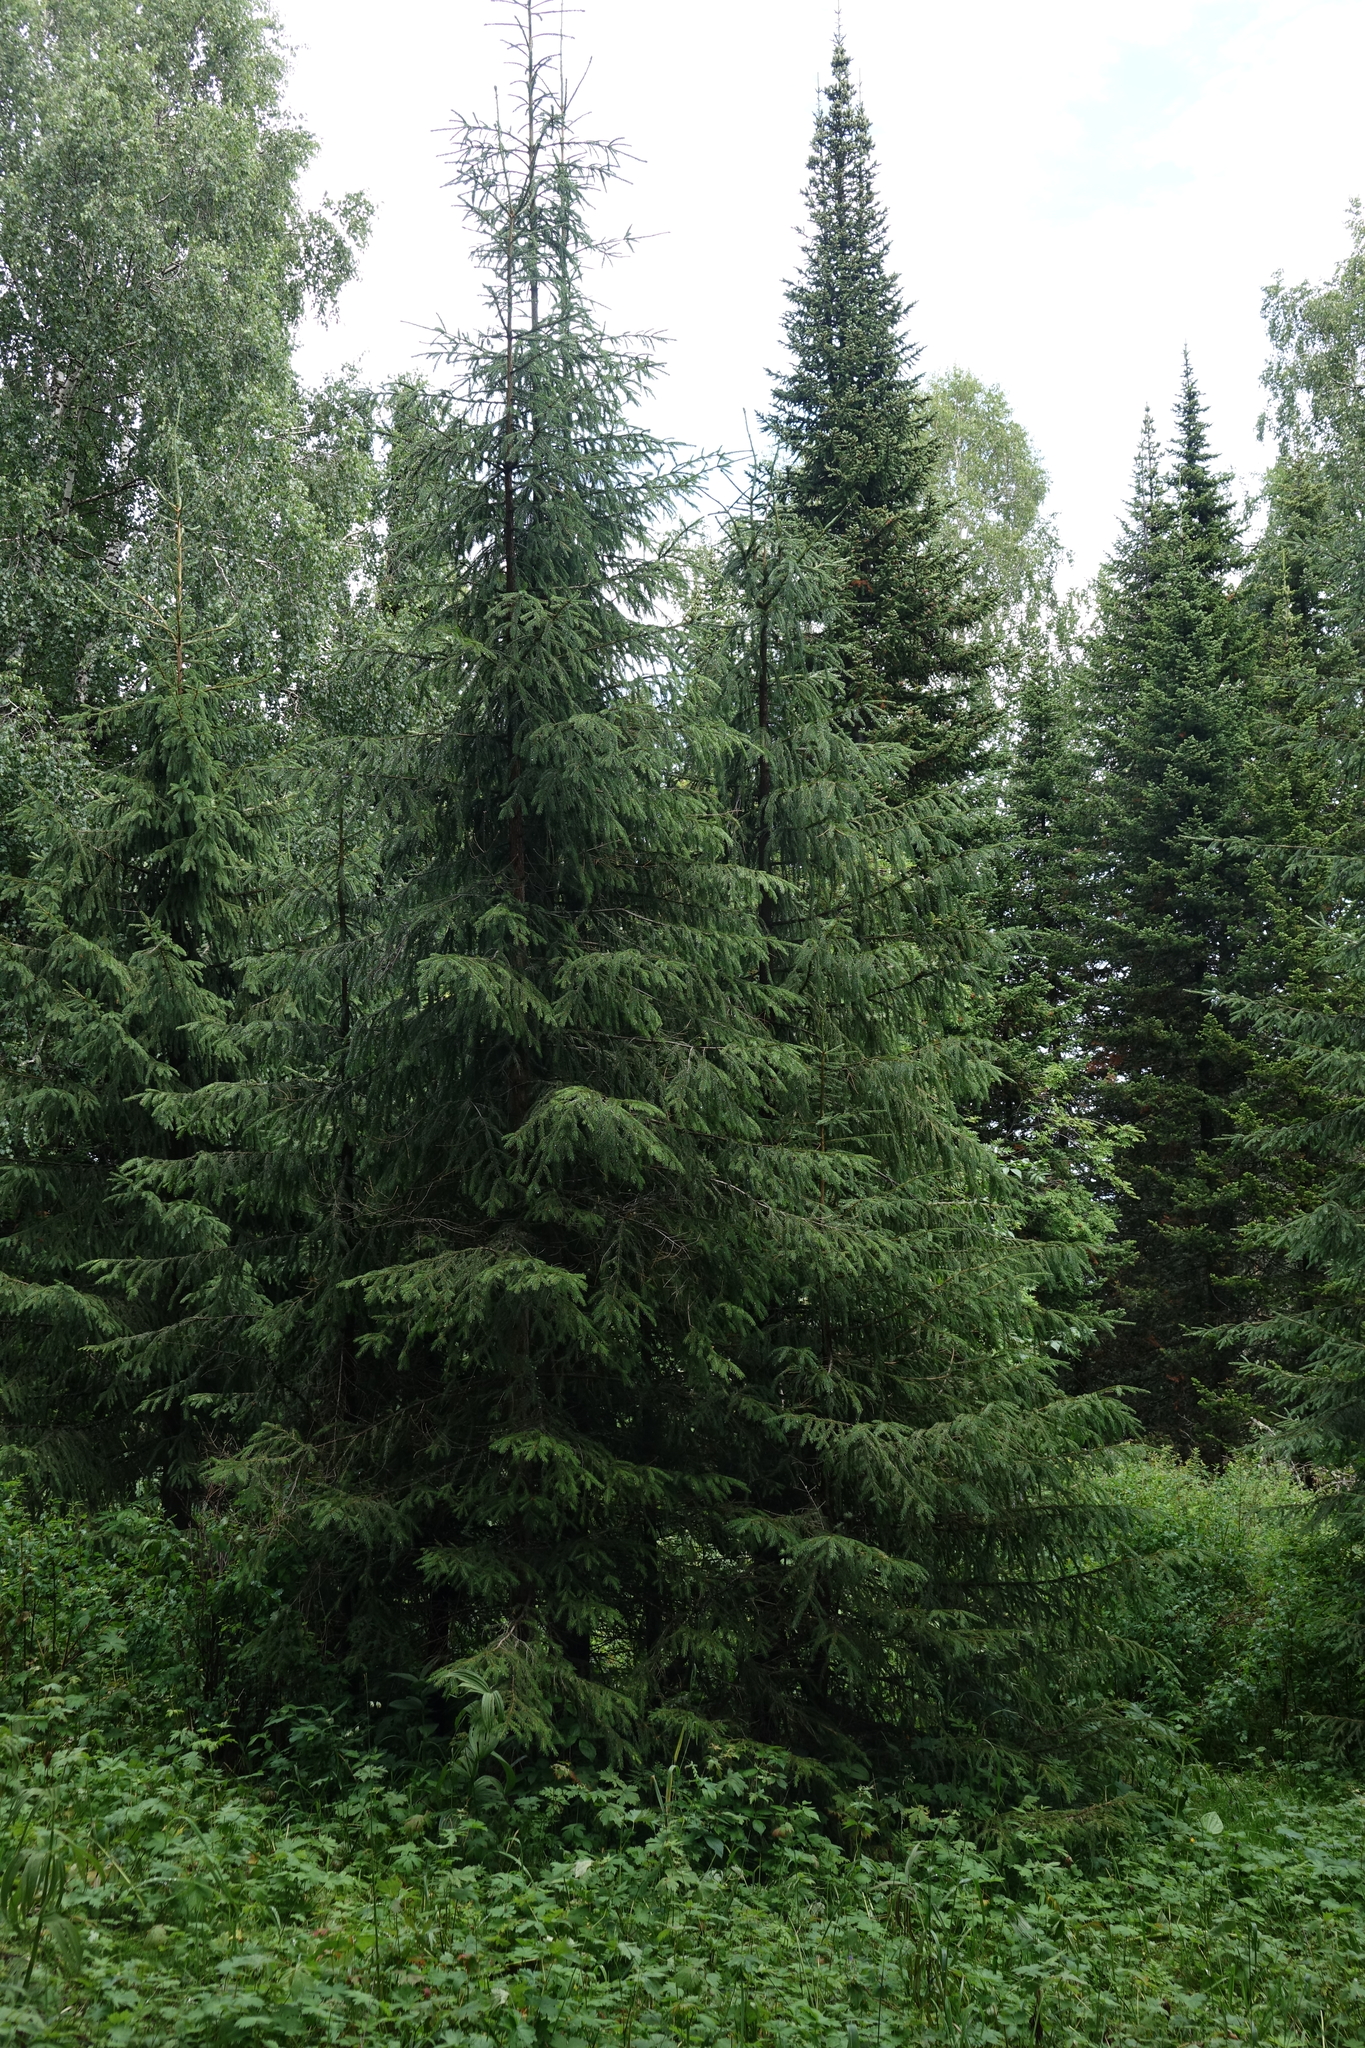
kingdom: Plantae
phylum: Tracheophyta
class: Pinopsida
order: Pinales
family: Pinaceae
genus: Picea
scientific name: Picea obovata
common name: Siberian spruce
